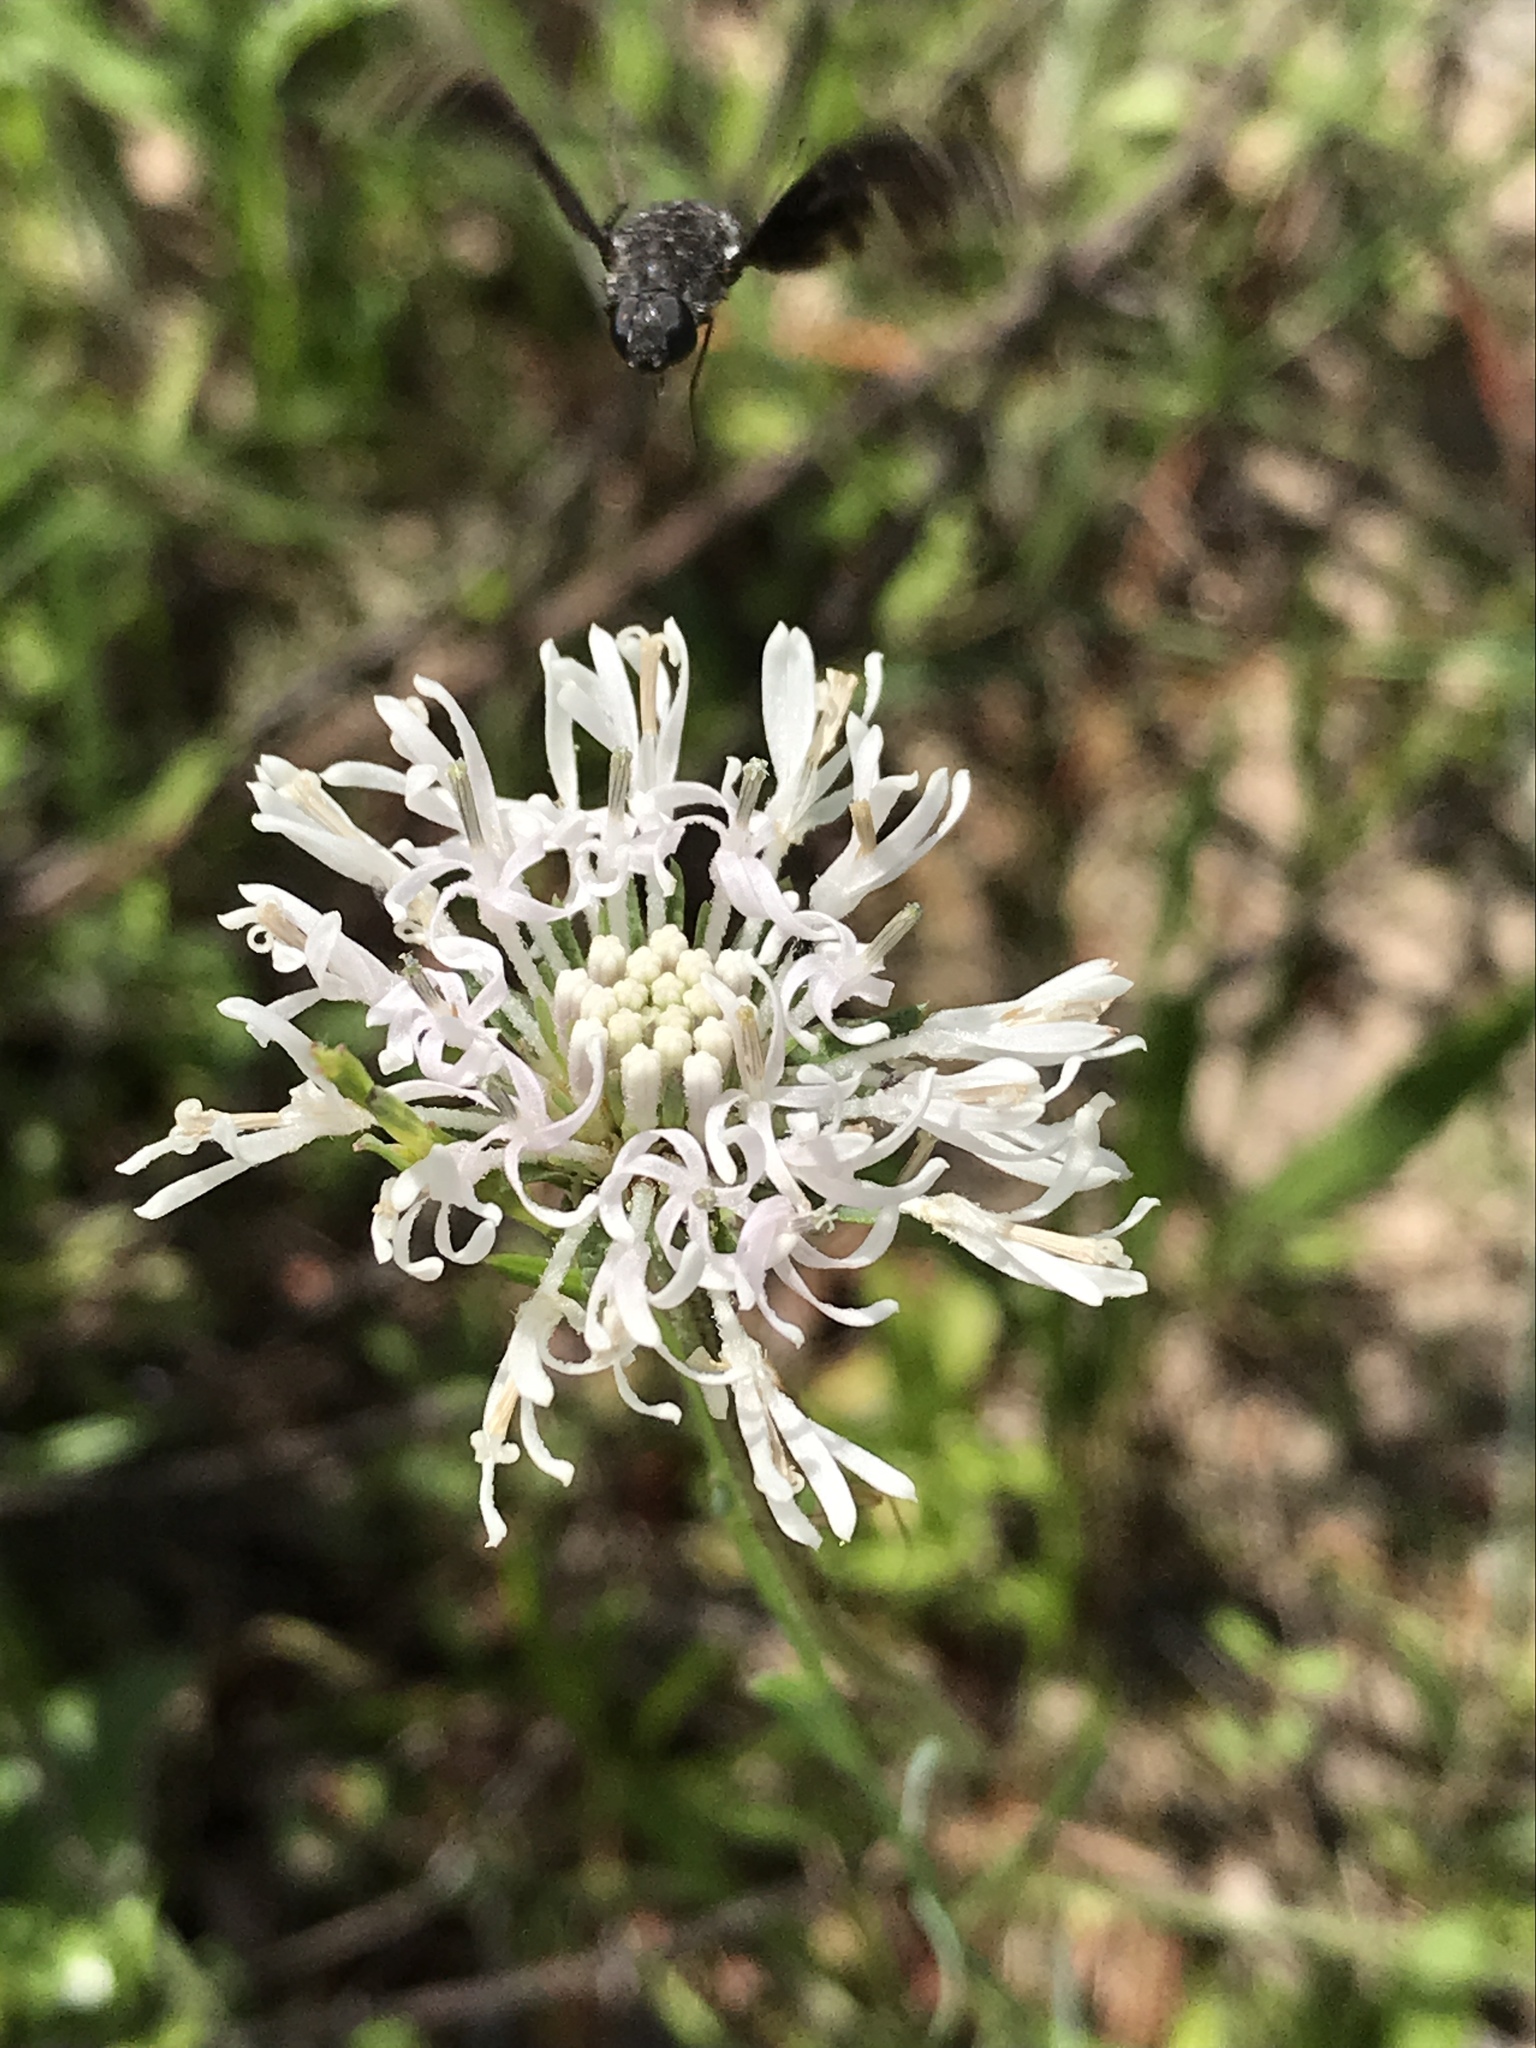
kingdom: Plantae
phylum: Tracheophyta
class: Magnoliopsida
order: Asterales
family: Asteraceae
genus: Marshallia
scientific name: Marshallia caespitosa
